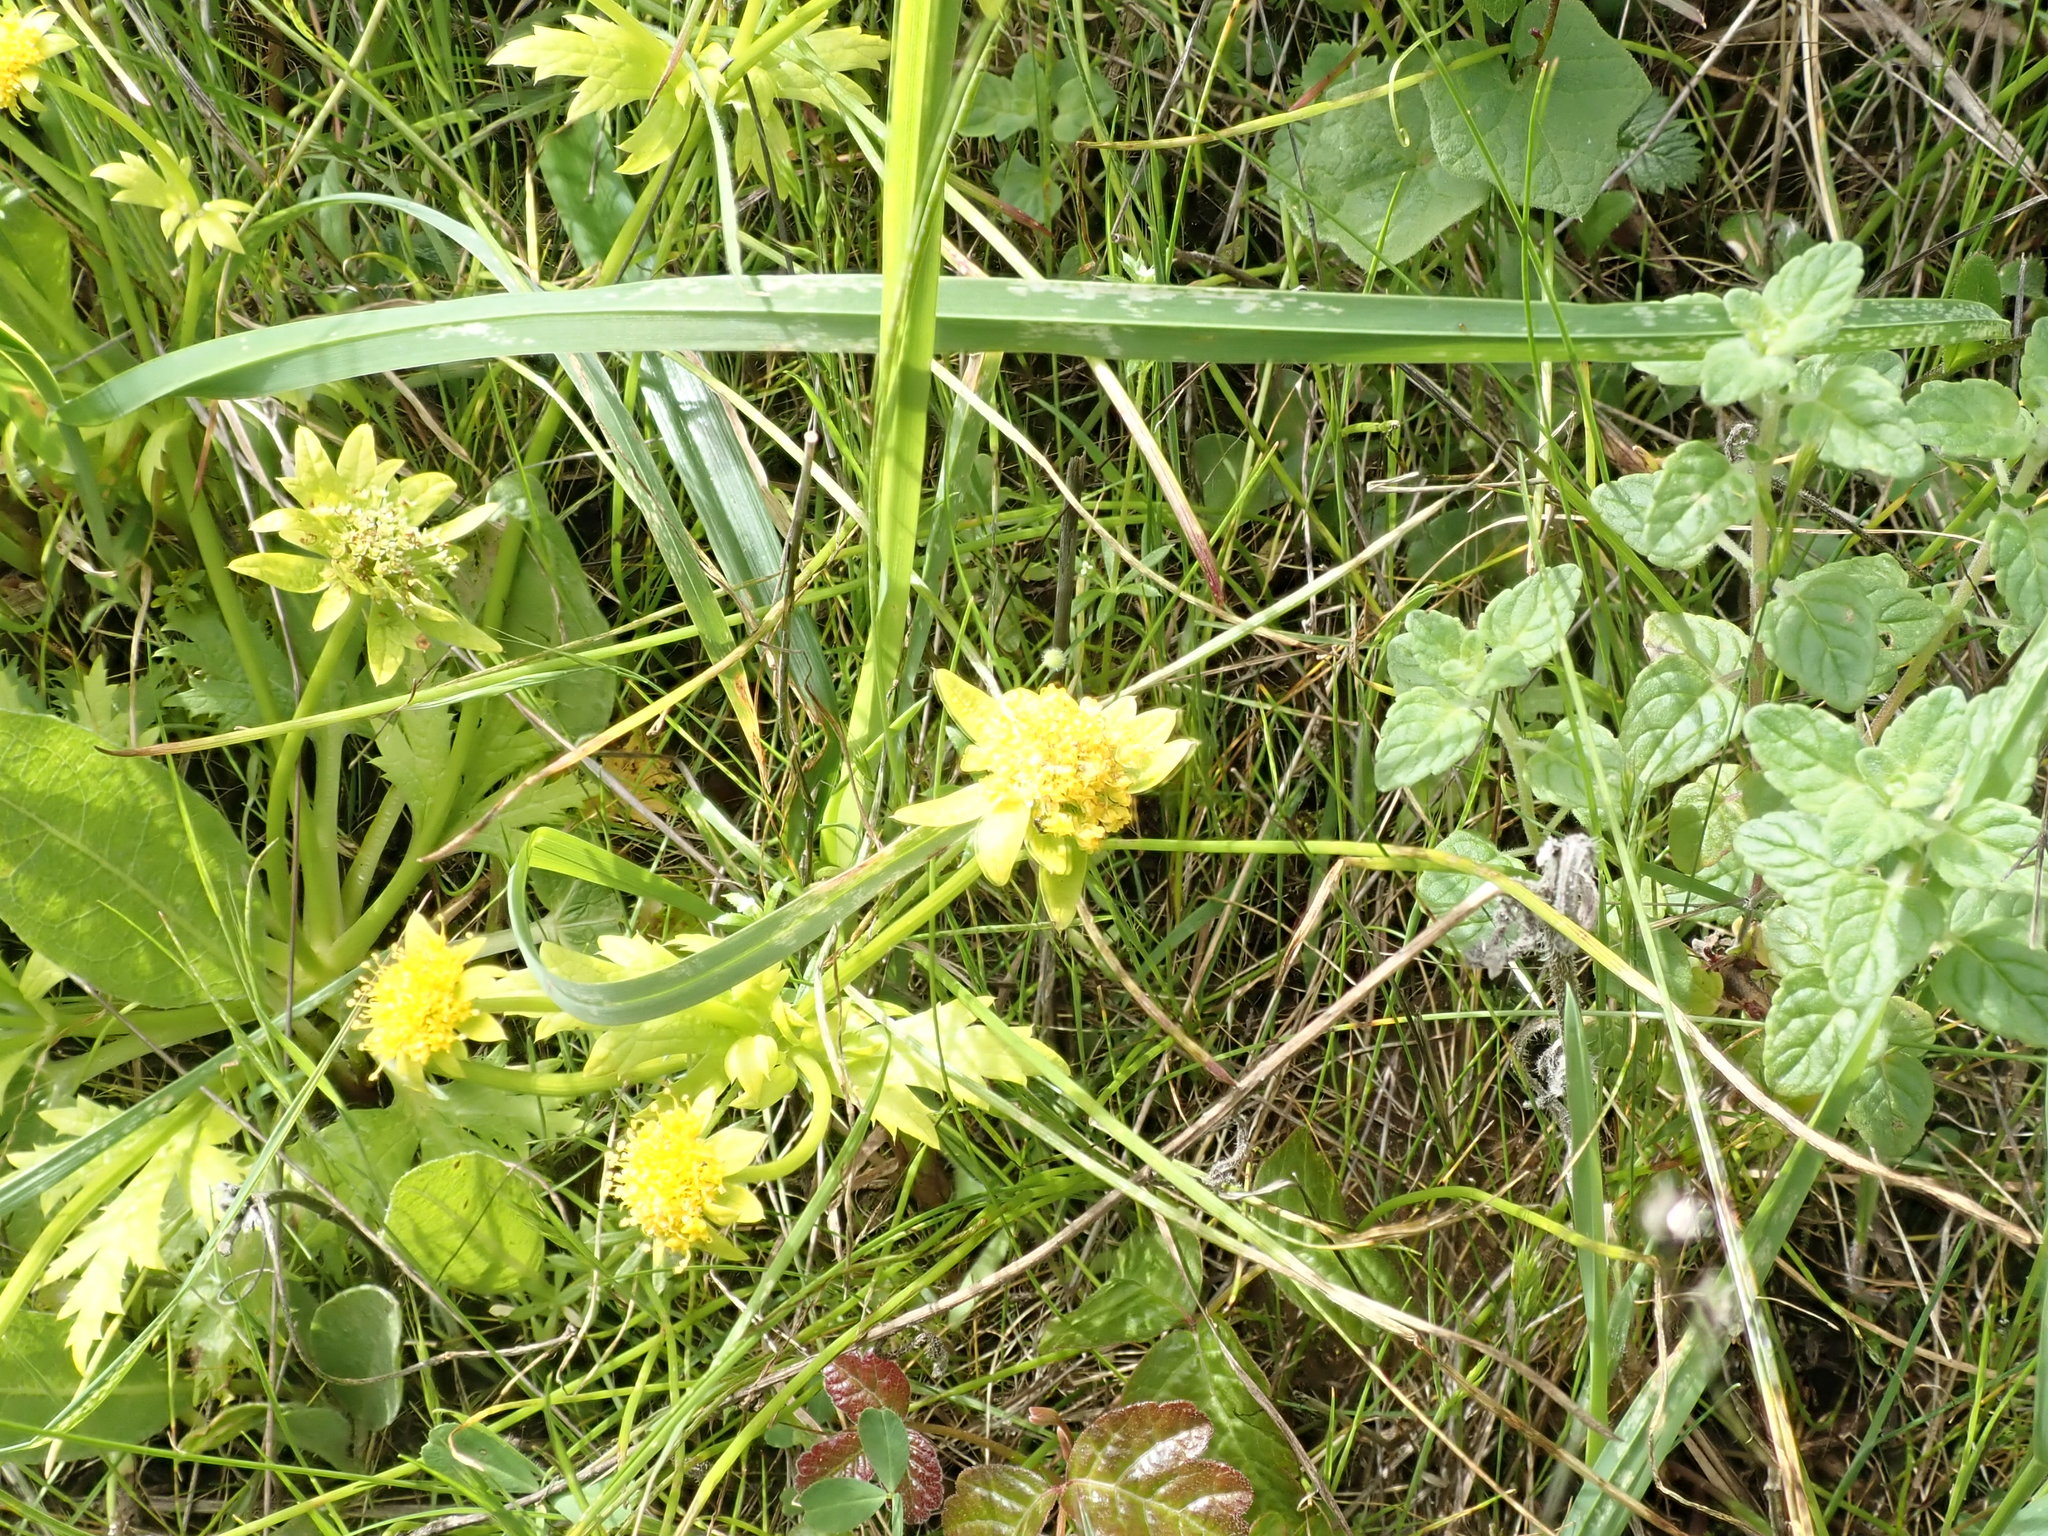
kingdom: Plantae
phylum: Tracheophyta
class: Magnoliopsida
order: Apiales
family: Apiaceae
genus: Sanicula
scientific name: Sanicula arctopoides
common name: Footsteps-of-spring
